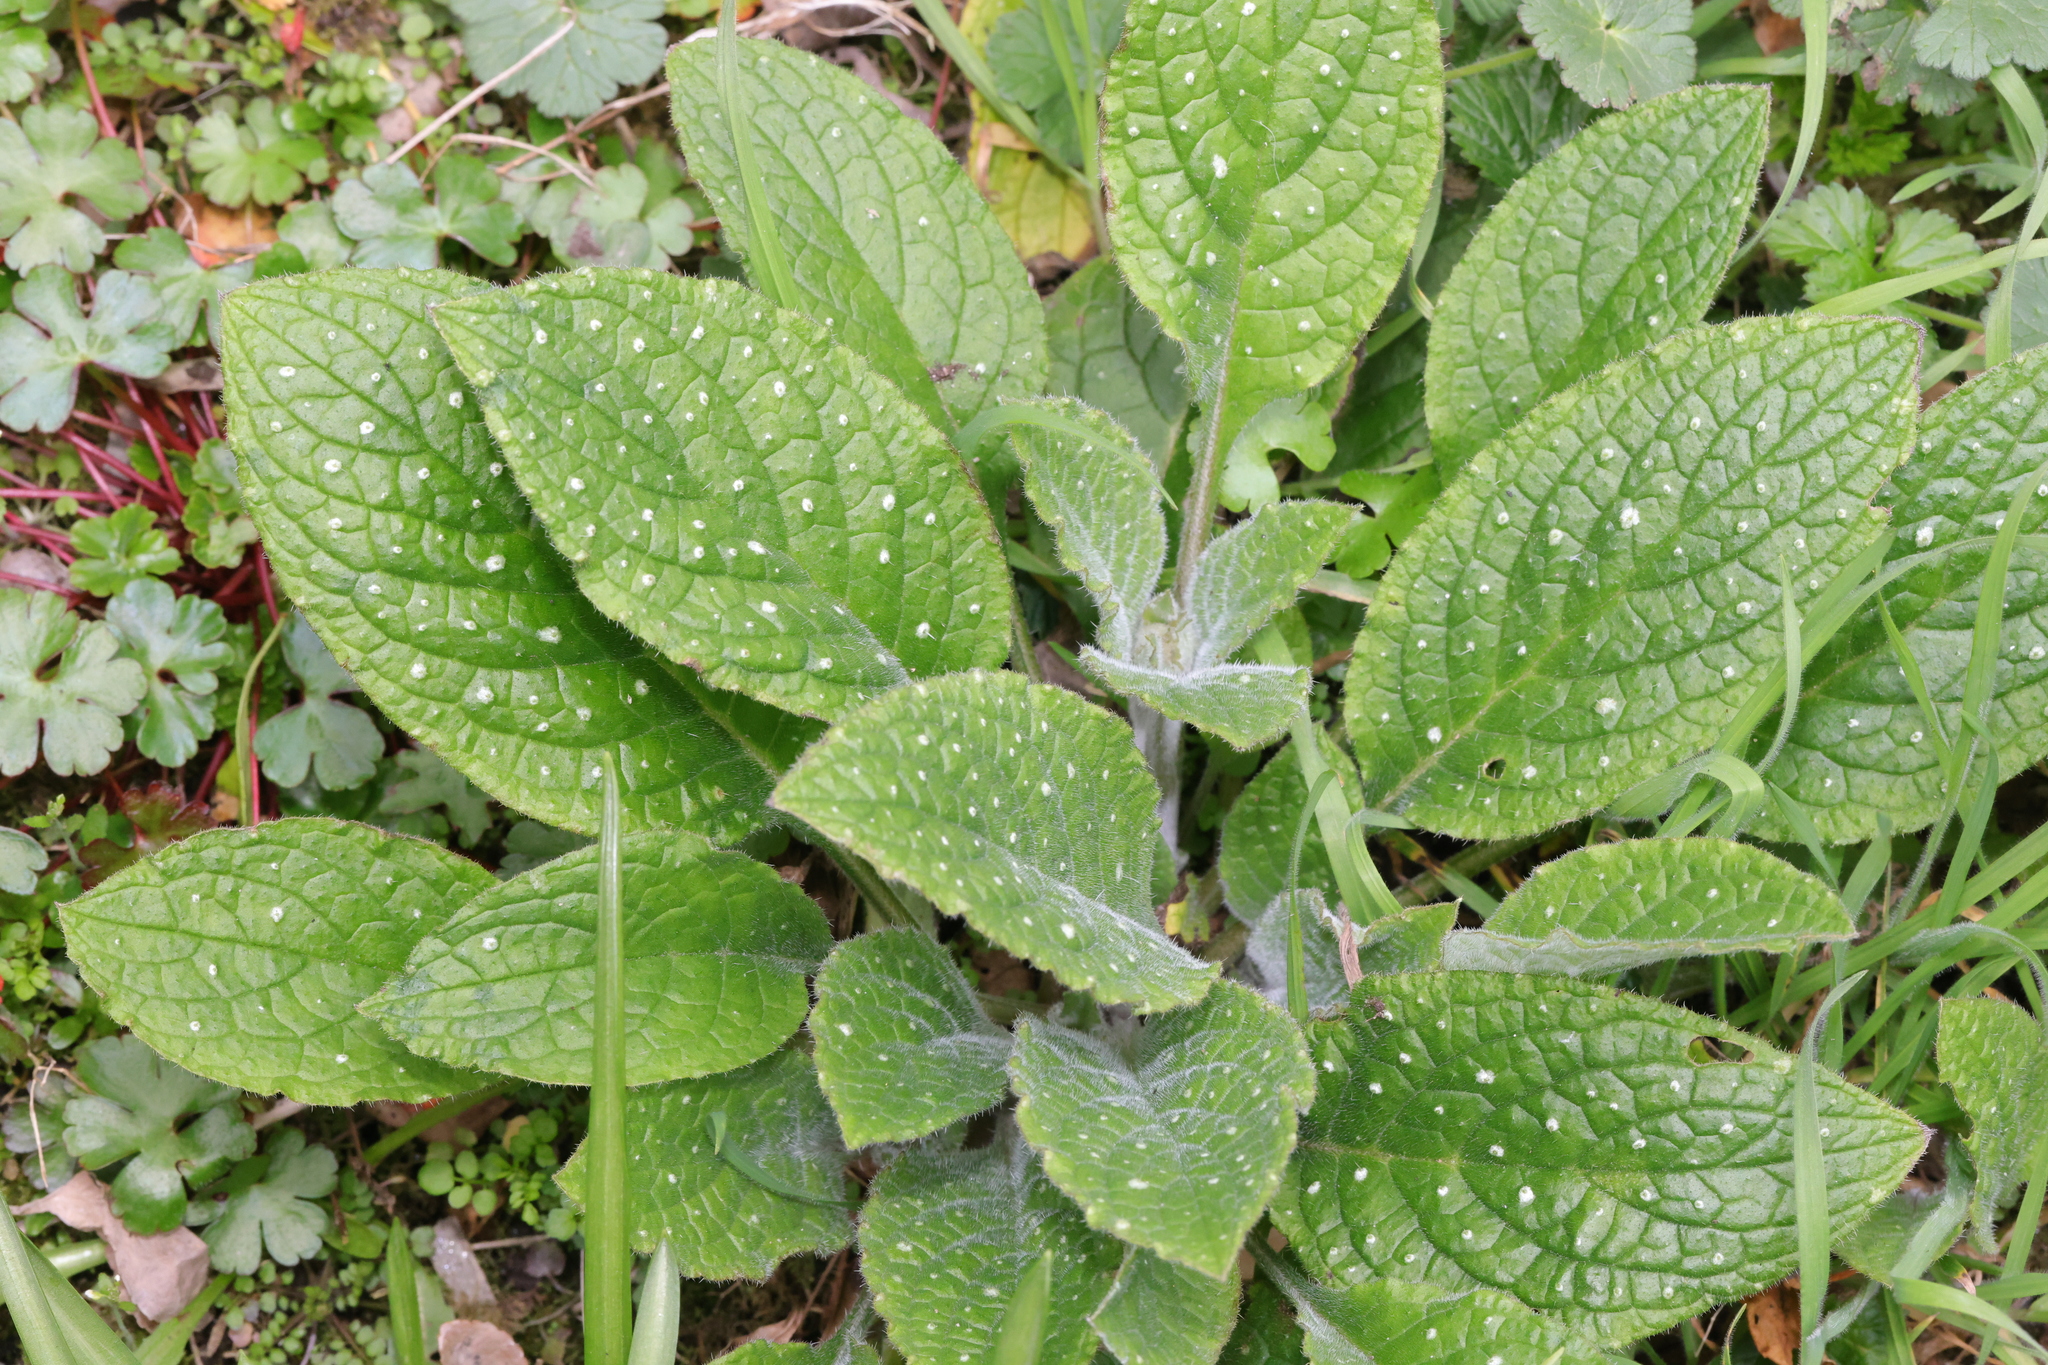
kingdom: Plantae
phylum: Tracheophyta
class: Magnoliopsida
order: Boraginales
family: Boraginaceae
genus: Pentaglottis
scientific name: Pentaglottis sempervirens
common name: Green alkanet
